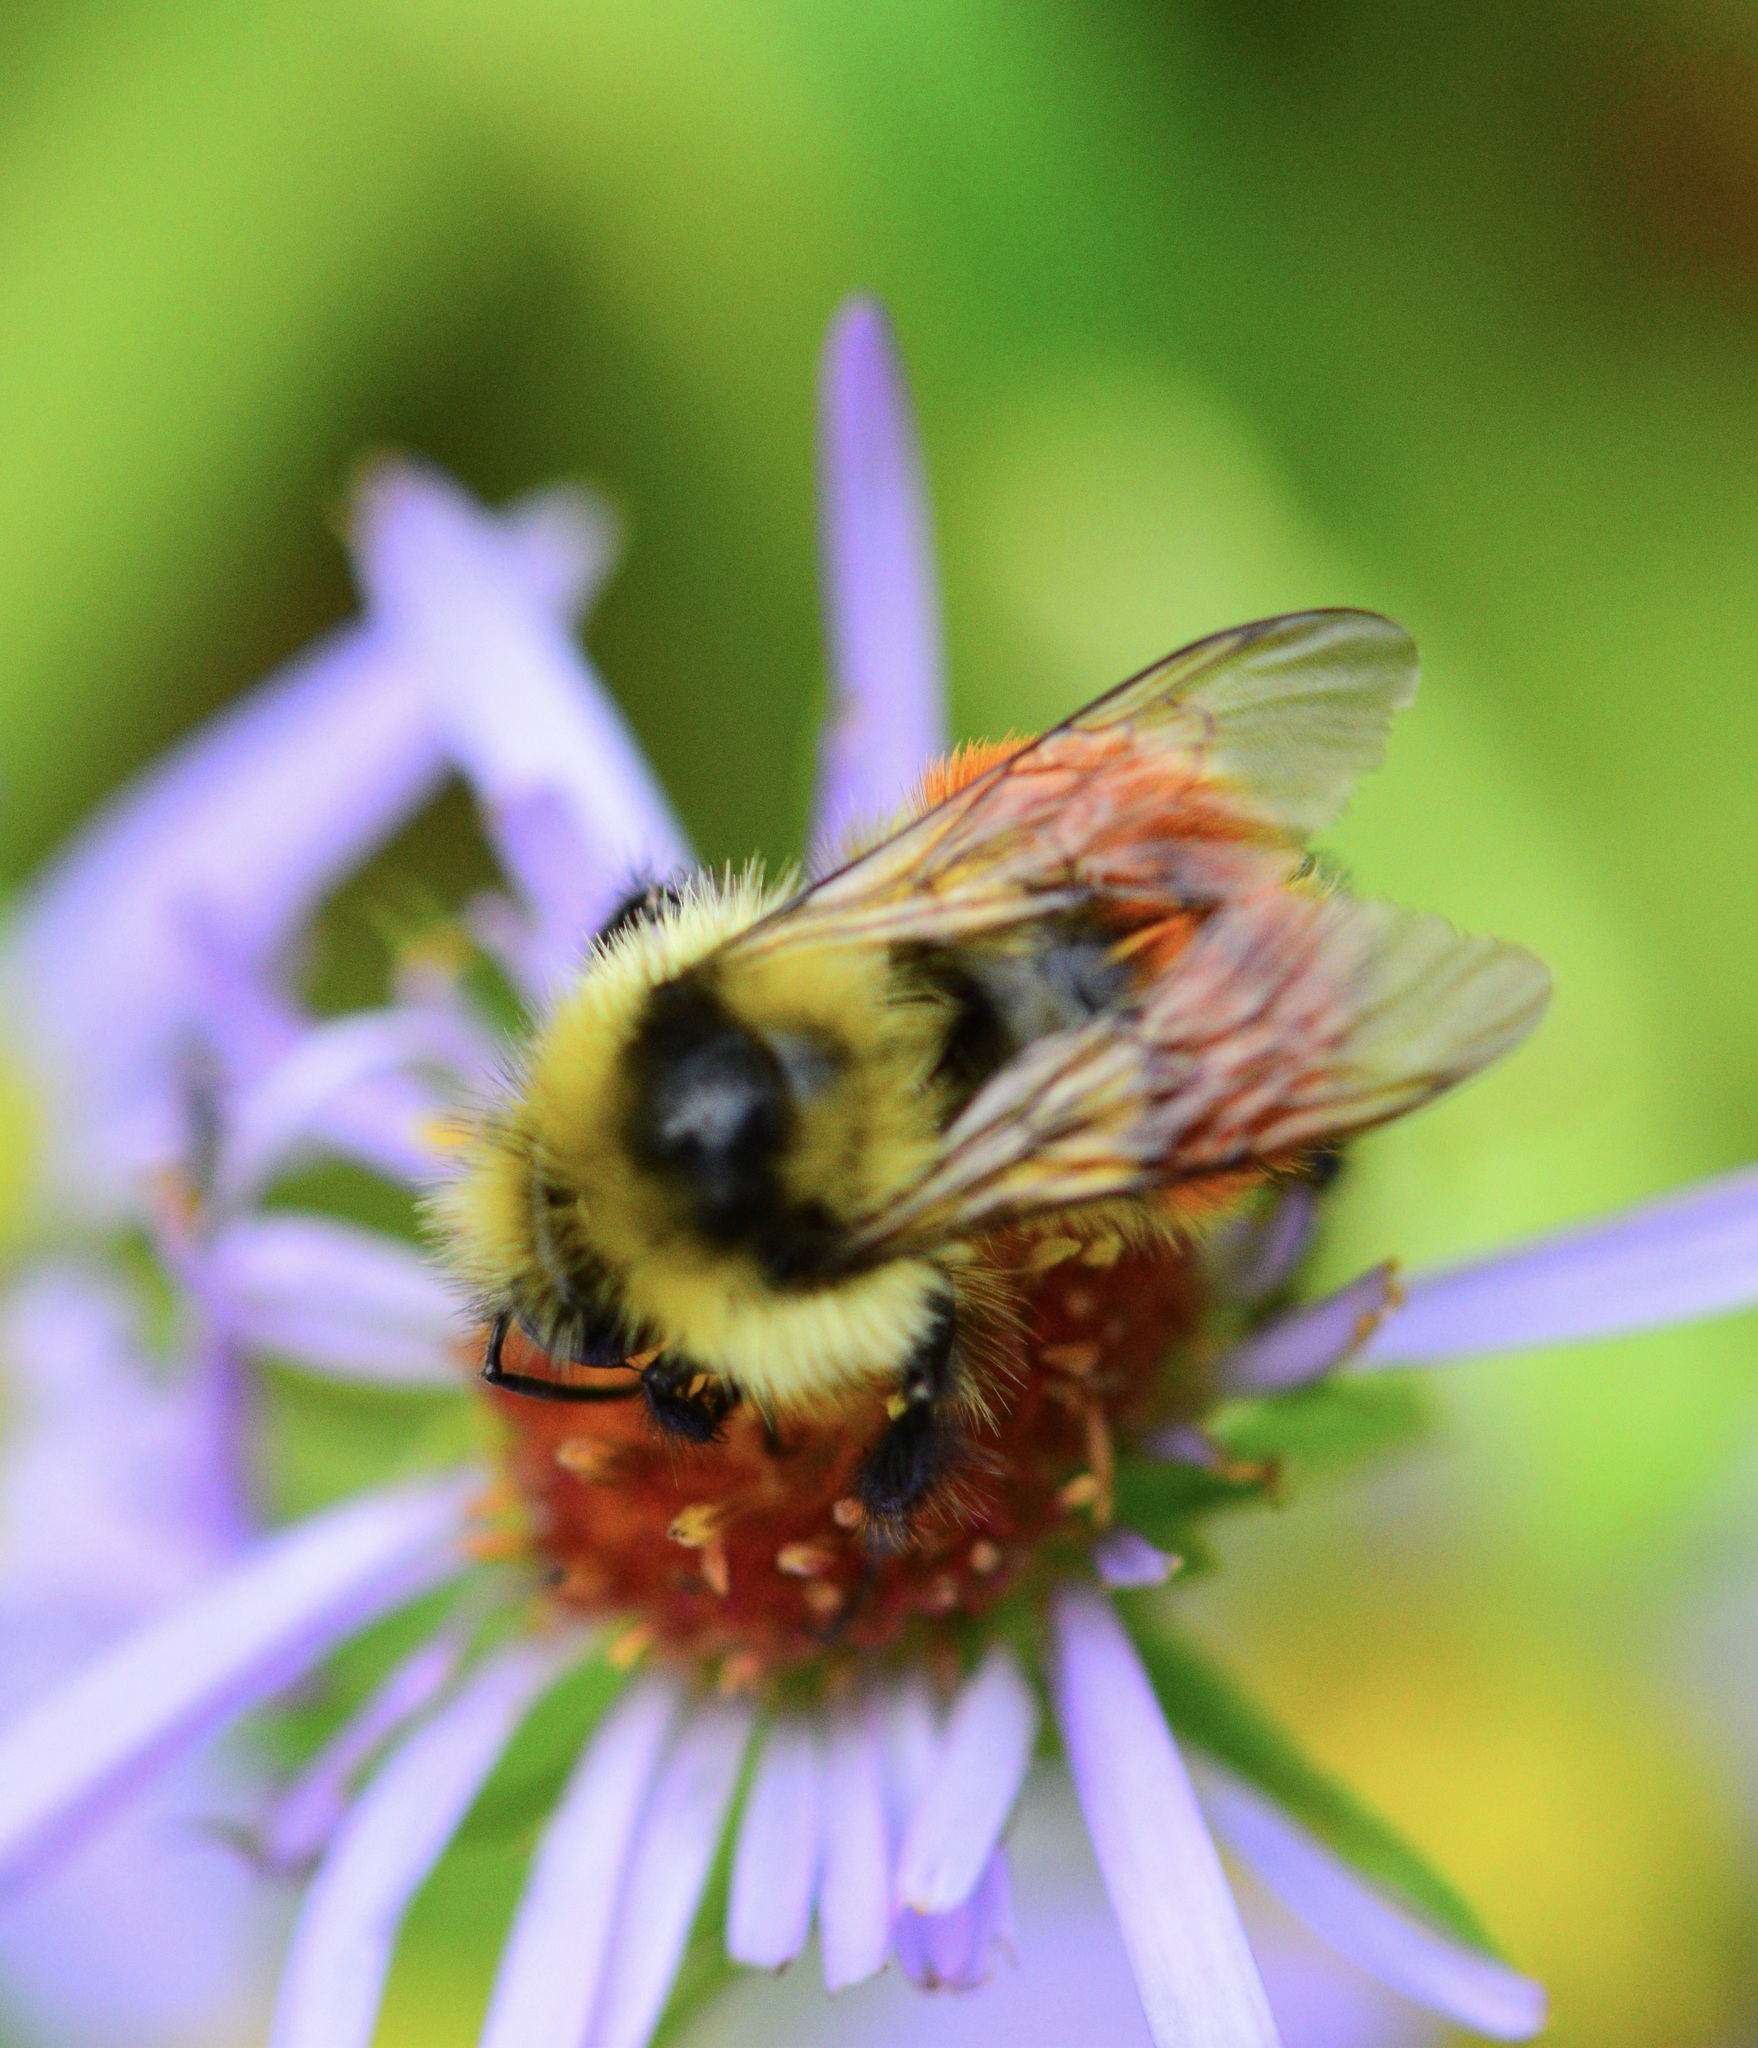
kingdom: Animalia
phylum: Arthropoda
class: Insecta
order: Hymenoptera
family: Apidae
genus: Bombus
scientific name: Bombus ternarius
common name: Tri-colored bumble bee
